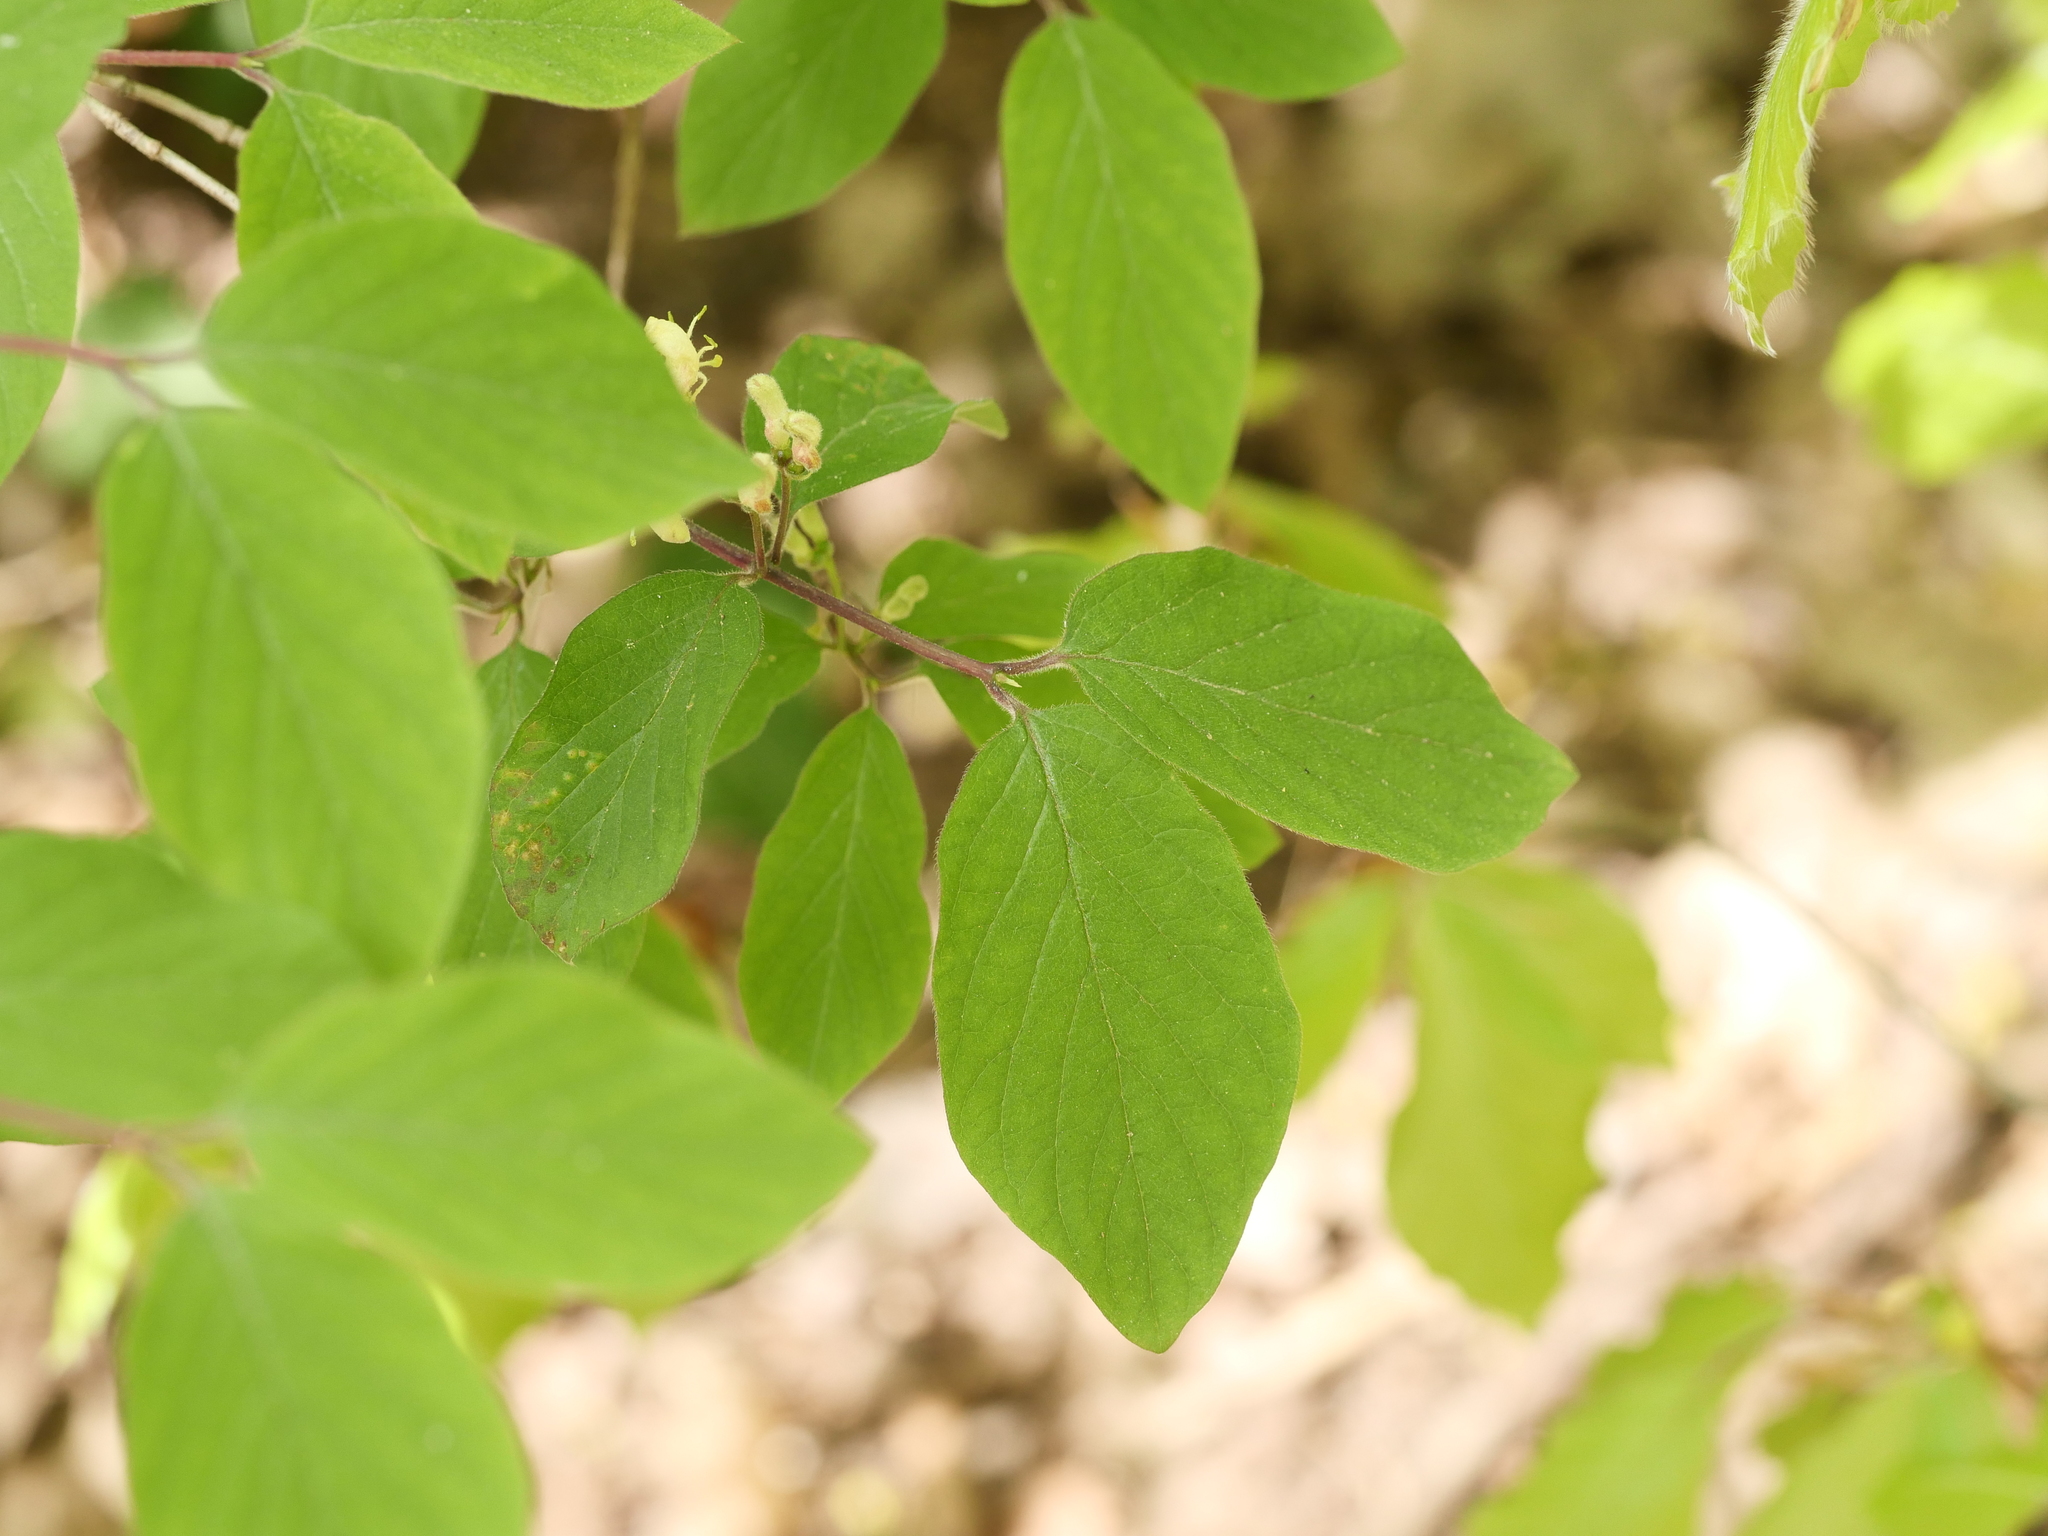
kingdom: Plantae
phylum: Tracheophyta
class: Magnoliopsida
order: Dipsacales
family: Caprifoliaceae
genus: Lonicera
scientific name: Lonicera xylosteum
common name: Fly honeysuckle
